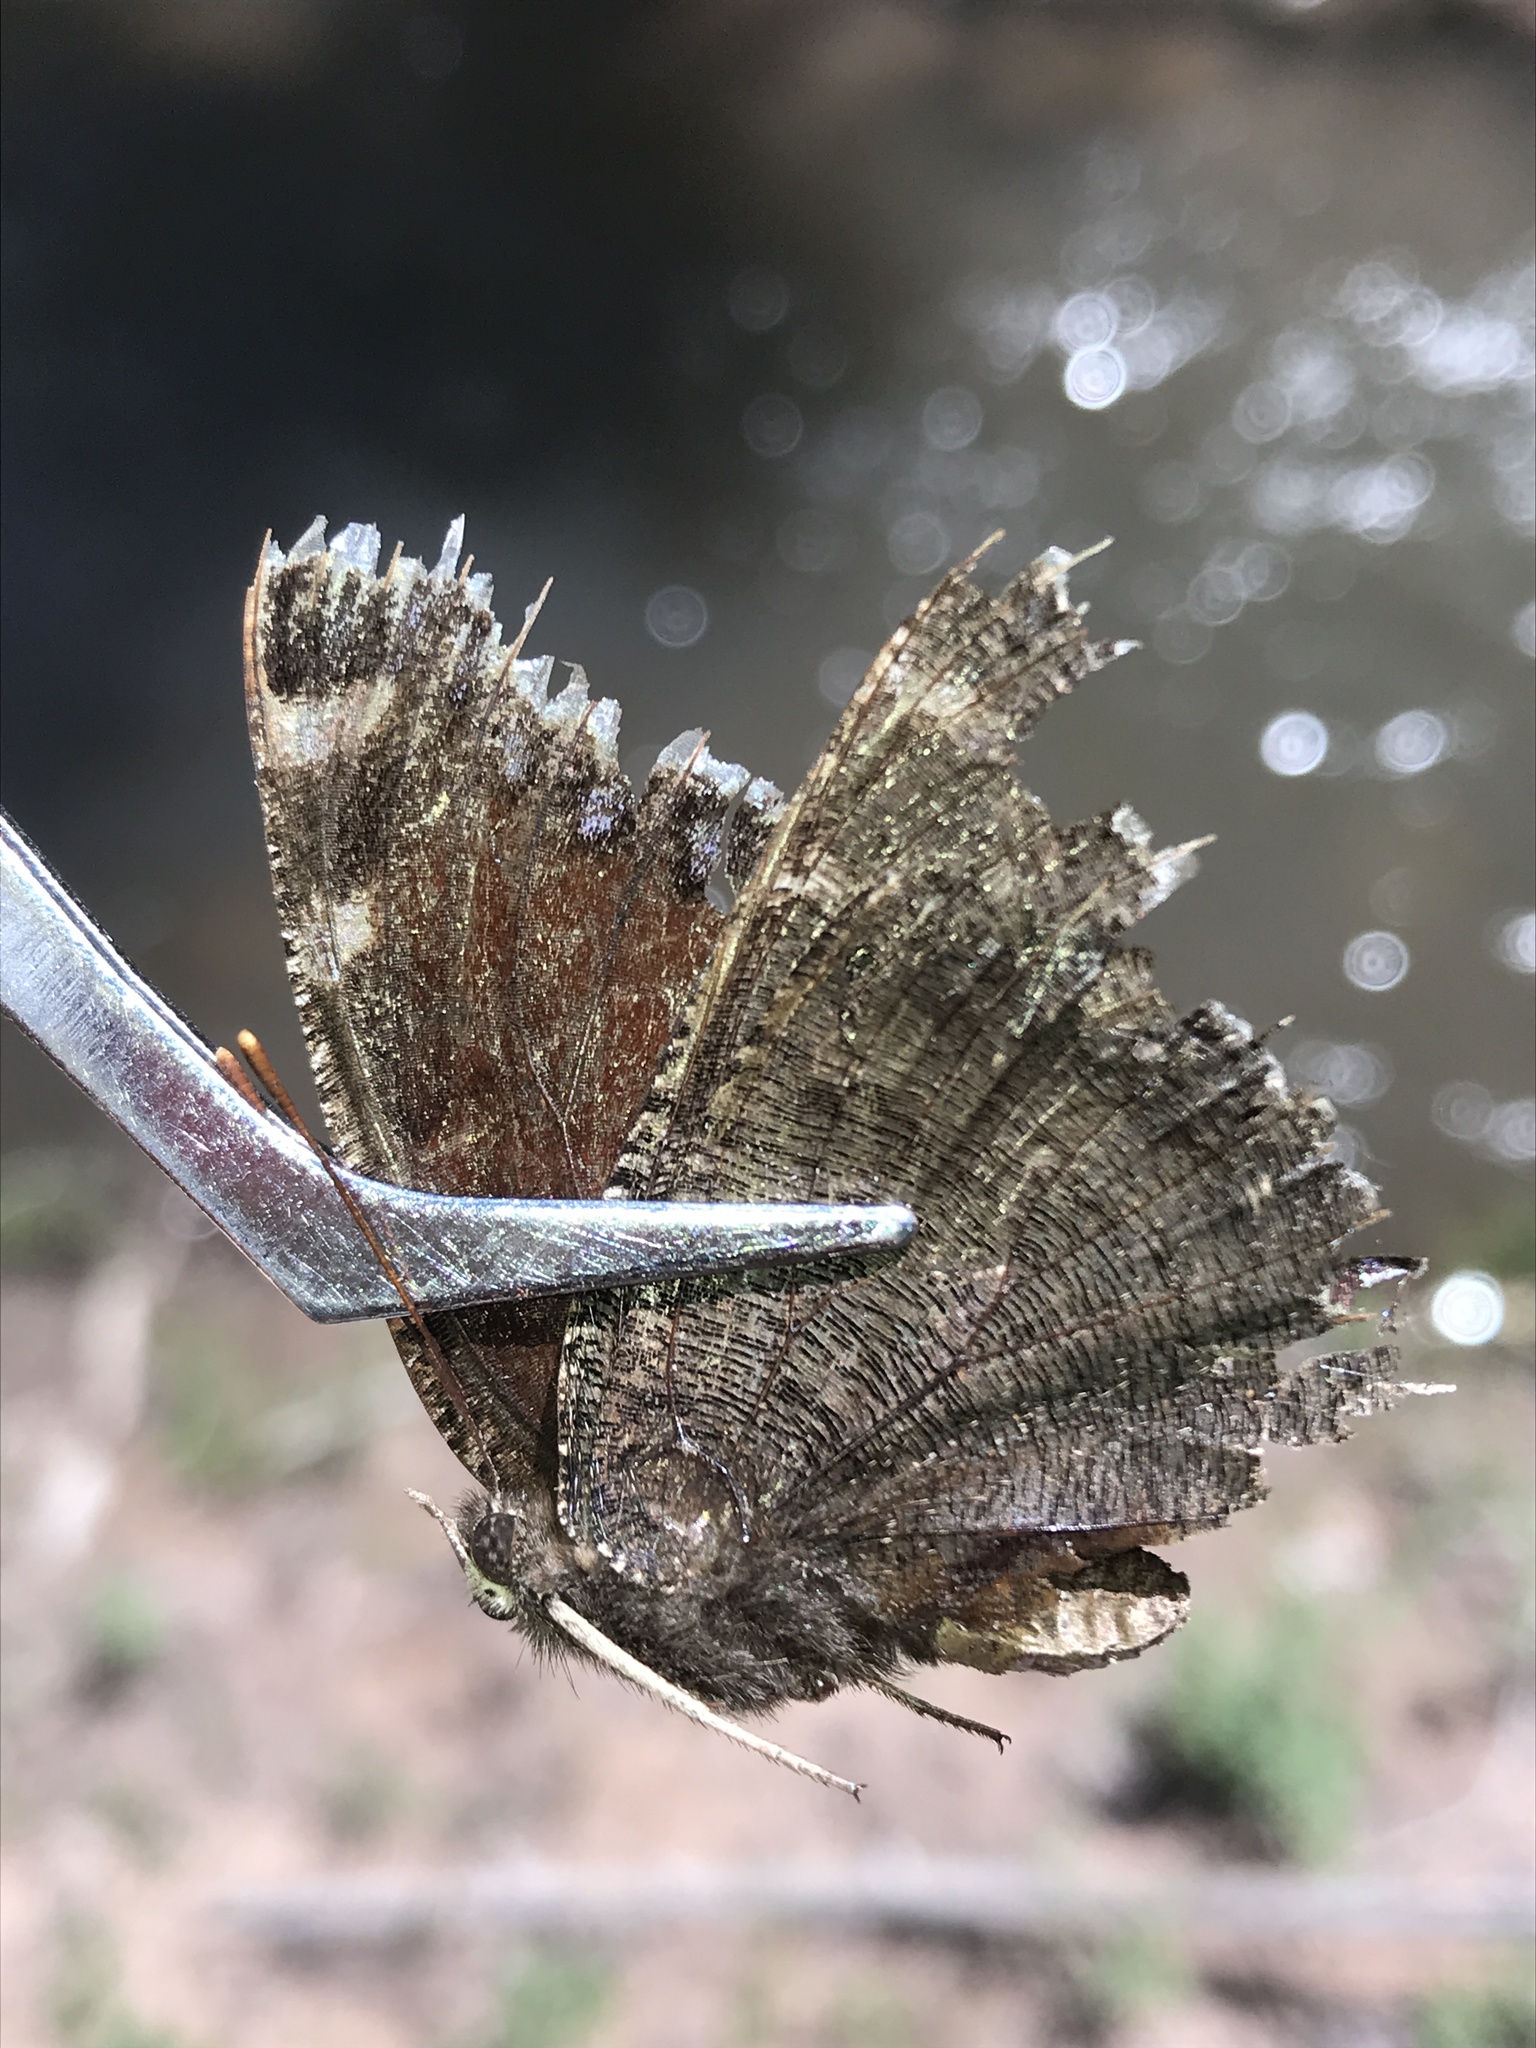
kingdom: Animalia
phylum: Arthropoda
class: Insecta
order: Lepidoptera
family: Nymphalidae
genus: Nymphalis
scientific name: Nymphalis antiopa
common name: Camberwell beauty
